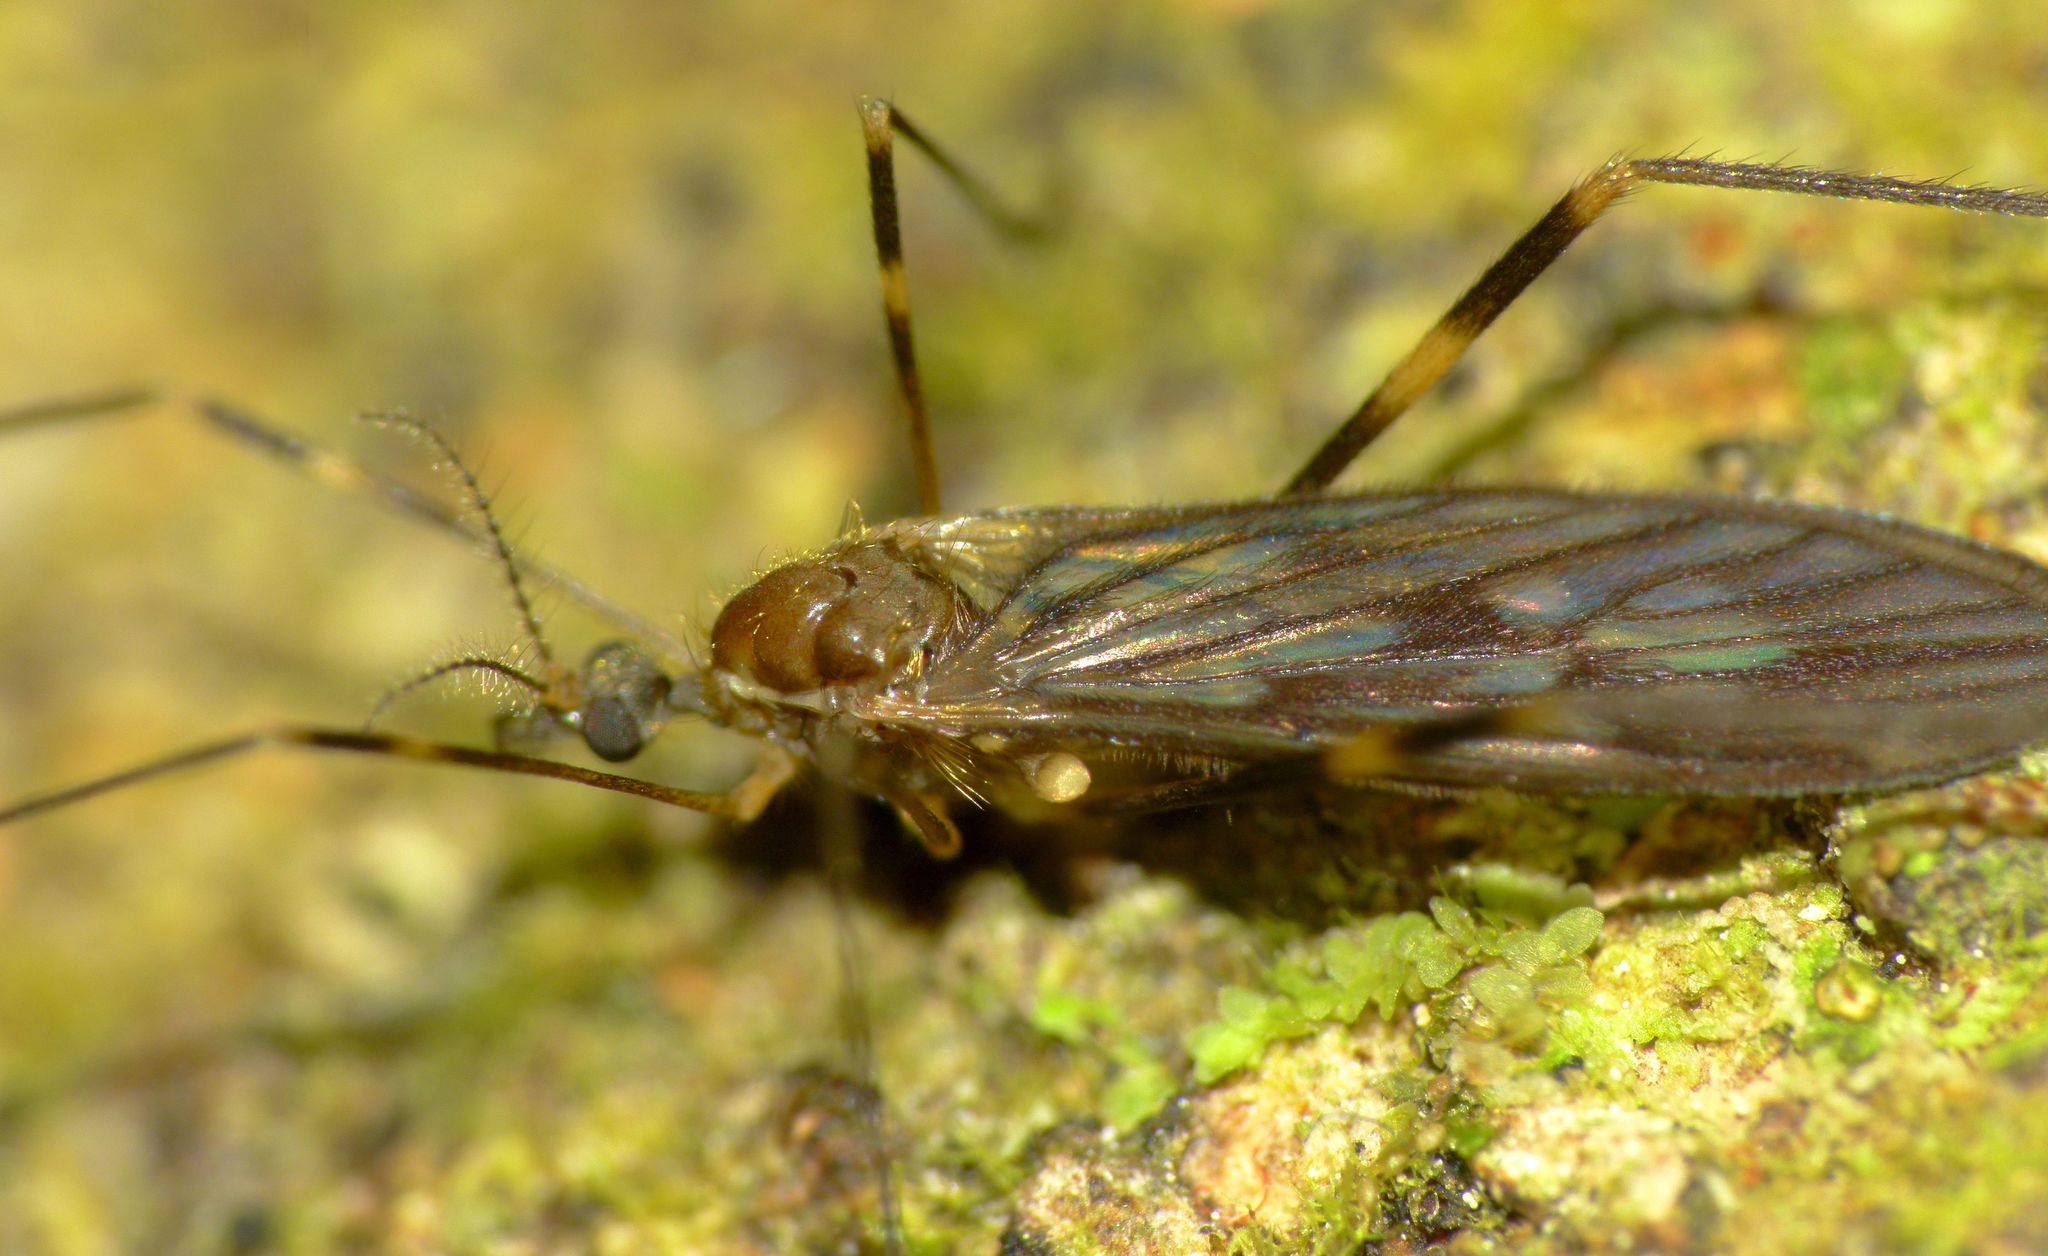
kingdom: Animalia
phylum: Arthropoda
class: Insecta
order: Diptera
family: Limoniidae
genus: Amphineurus
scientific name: Amphineurus fatuus
